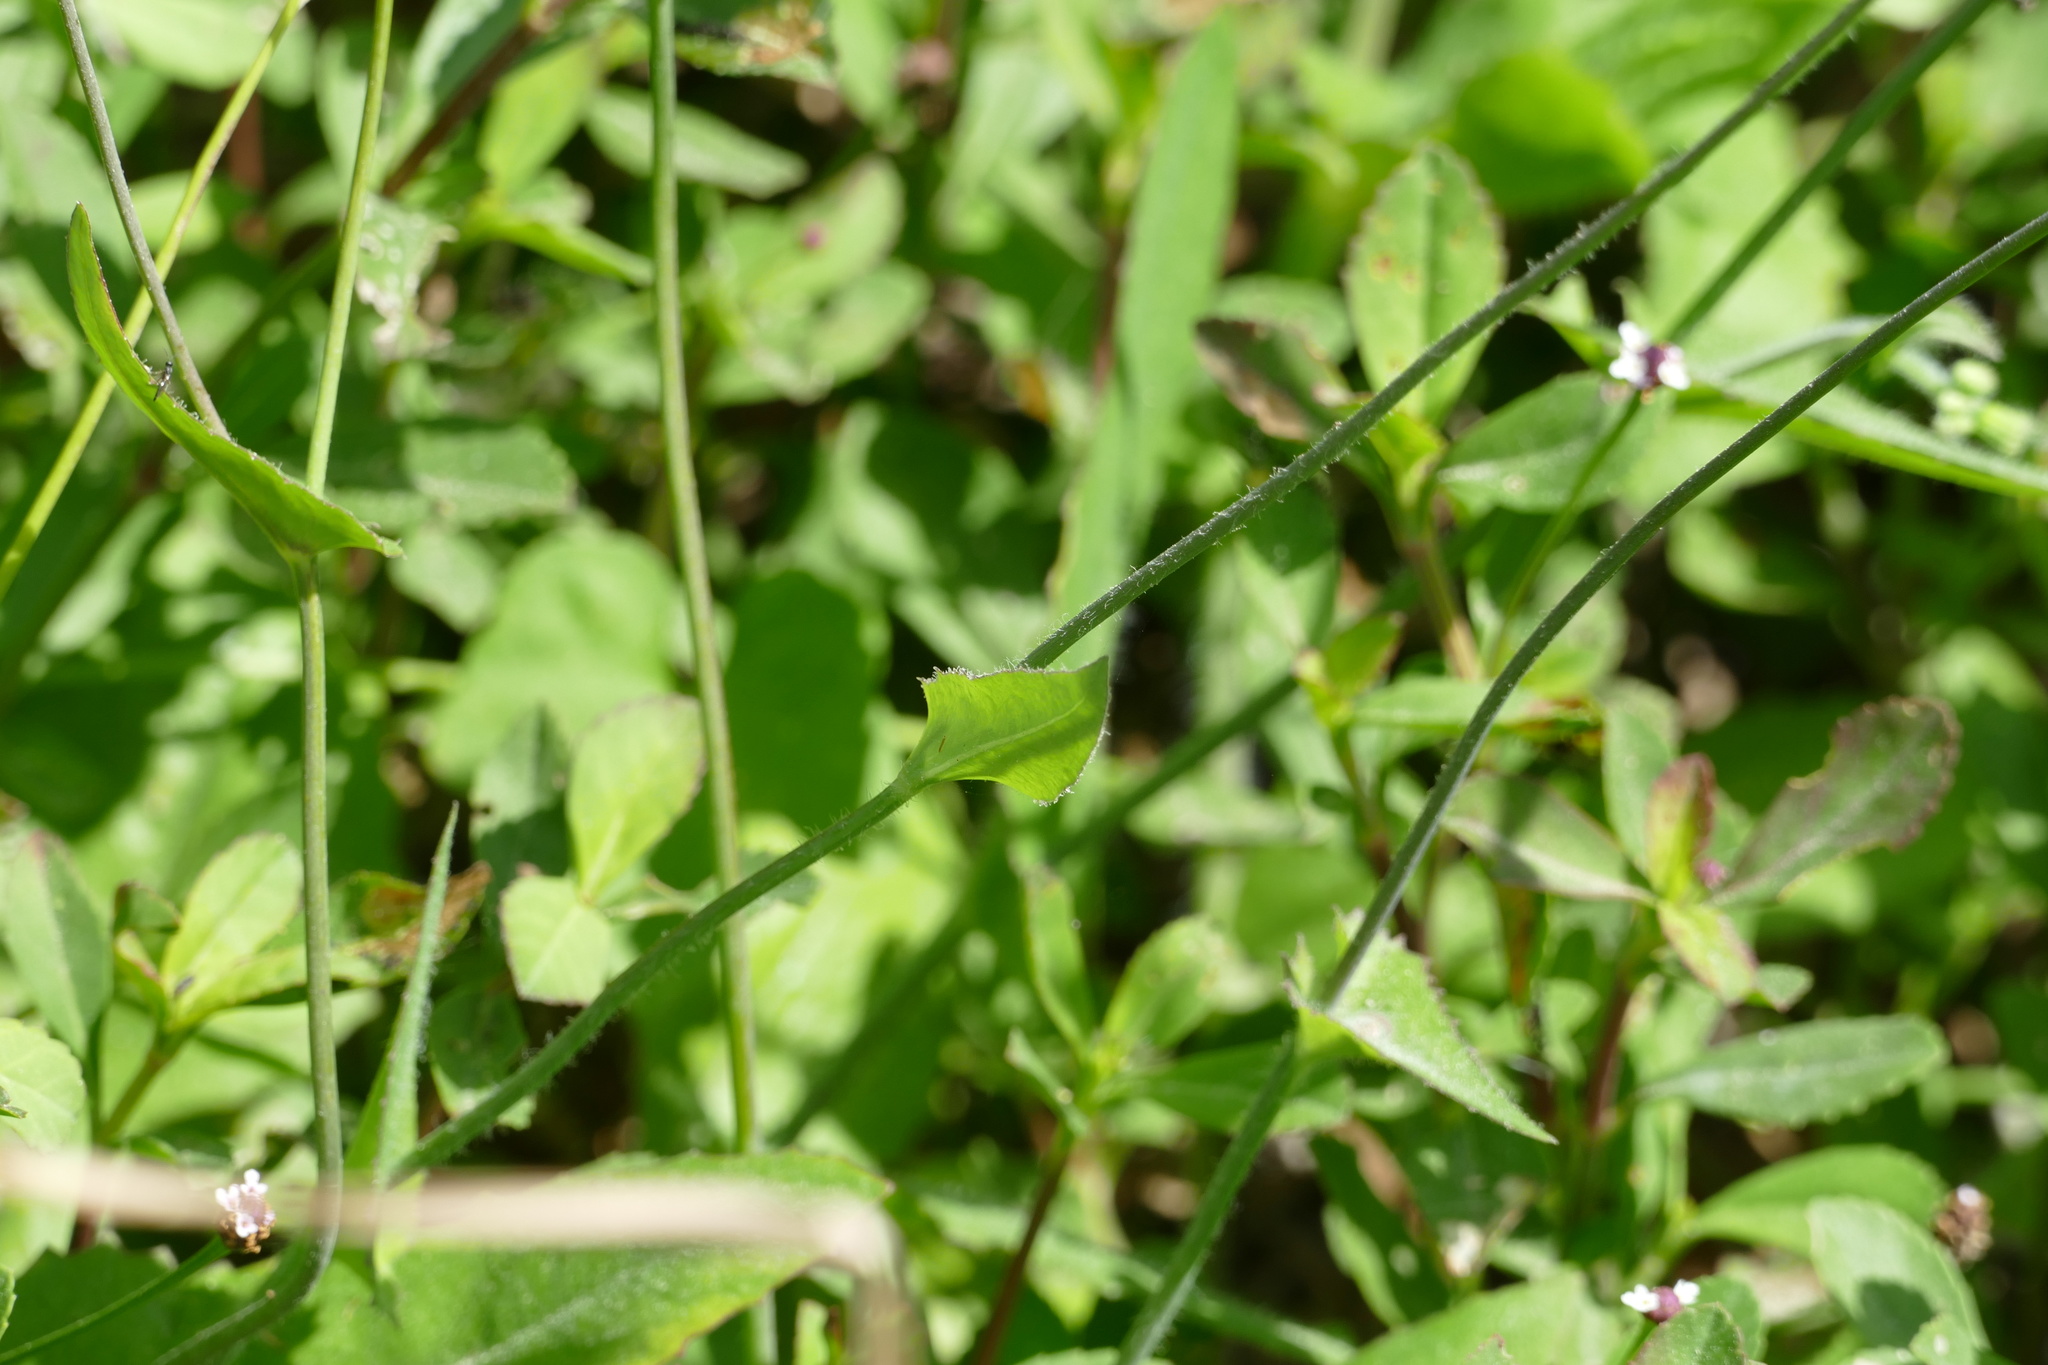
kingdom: Plantae
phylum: Tracheophyta
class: Magnoliopsida
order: Asterales
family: Asteraceae
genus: Emilia
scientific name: Emilia fosbergii
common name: Florida tasselflower
